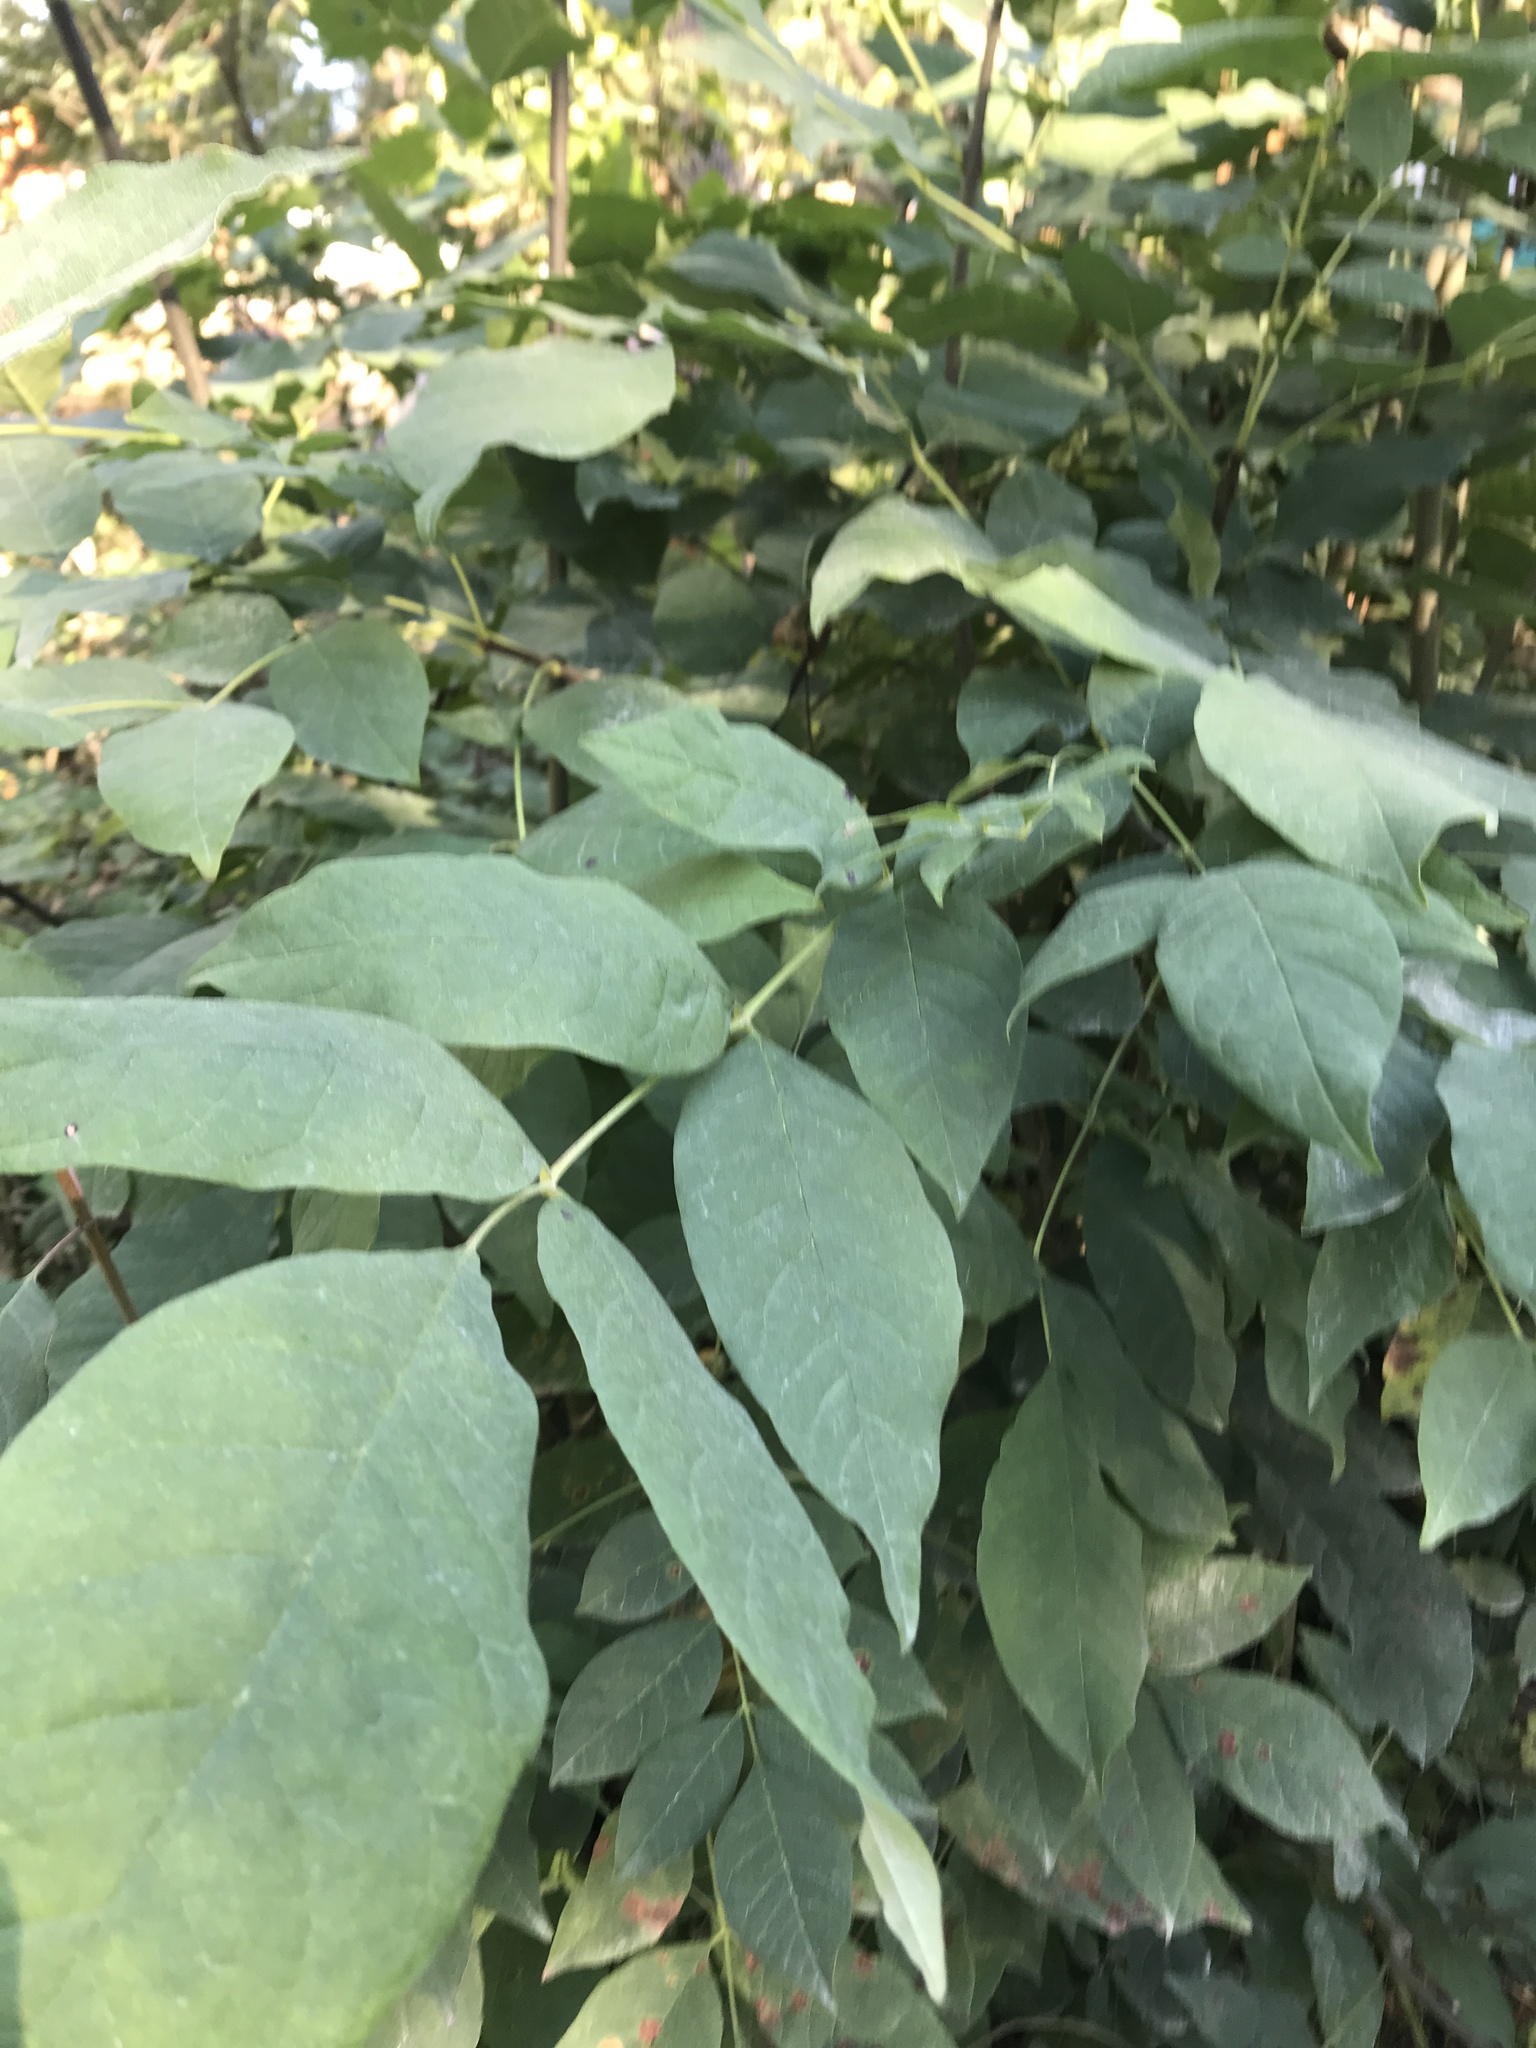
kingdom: Plantae
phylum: Tracheophyta
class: Magnoliopsida
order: Lamiales
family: Oleaceae
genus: Fraxinus
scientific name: Fraxinus pennsylvanica
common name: Green ash
